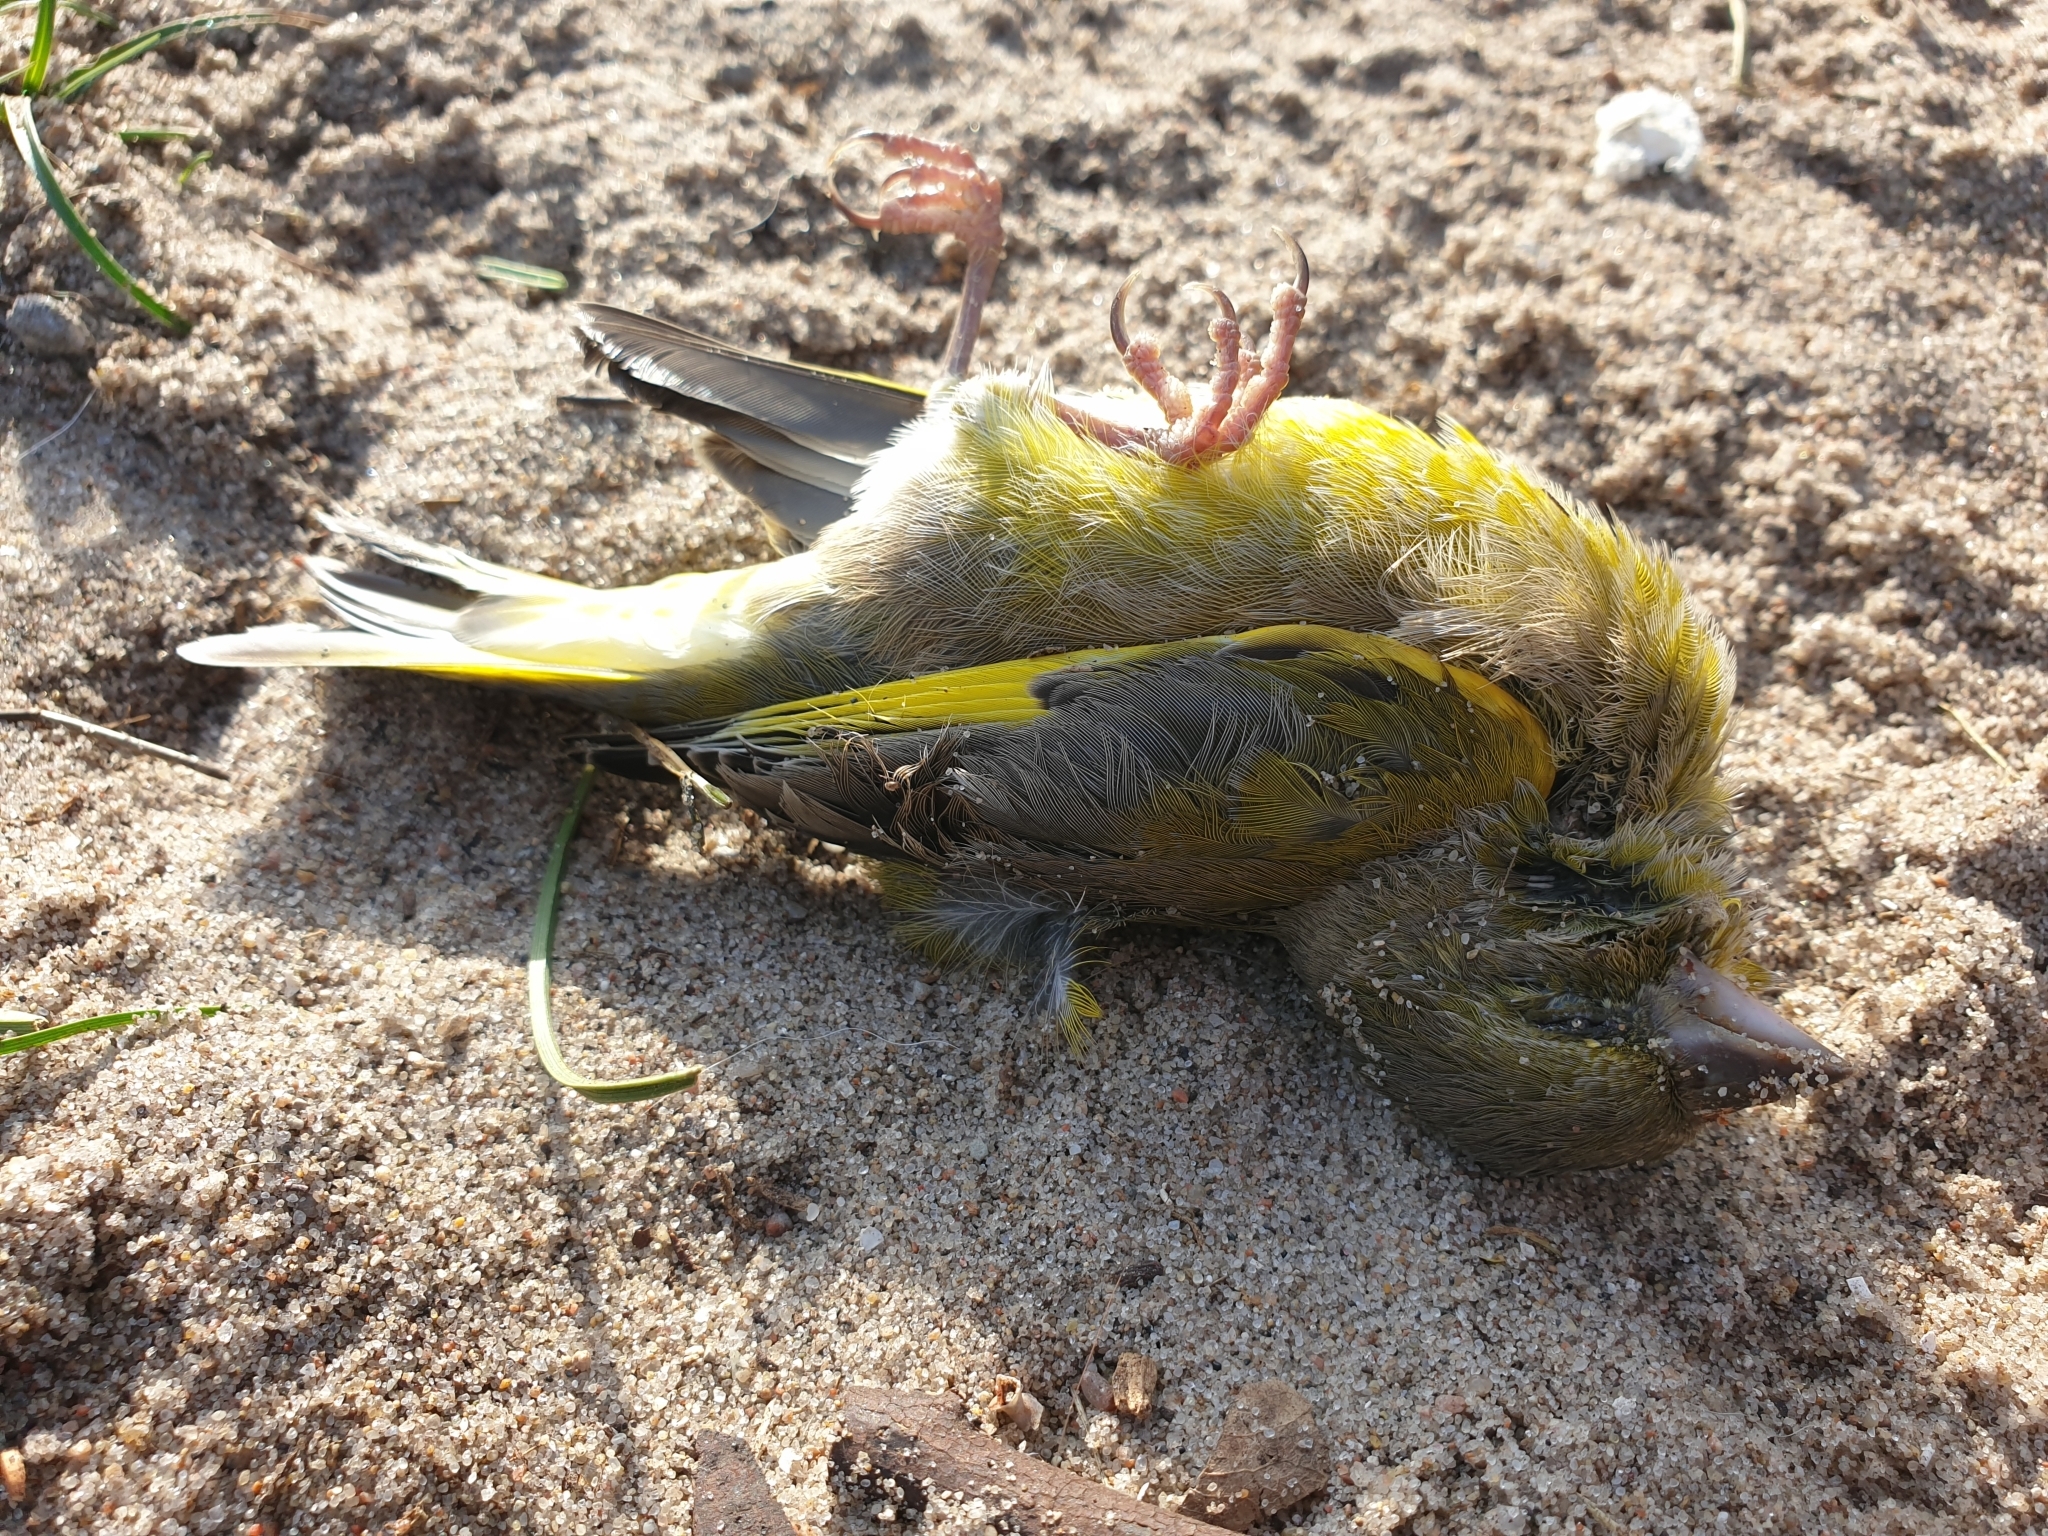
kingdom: Plantae
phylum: Tracheophyta
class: Liliopsida
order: Poales
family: Poaceae
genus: Chloris
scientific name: Chloris chloris
